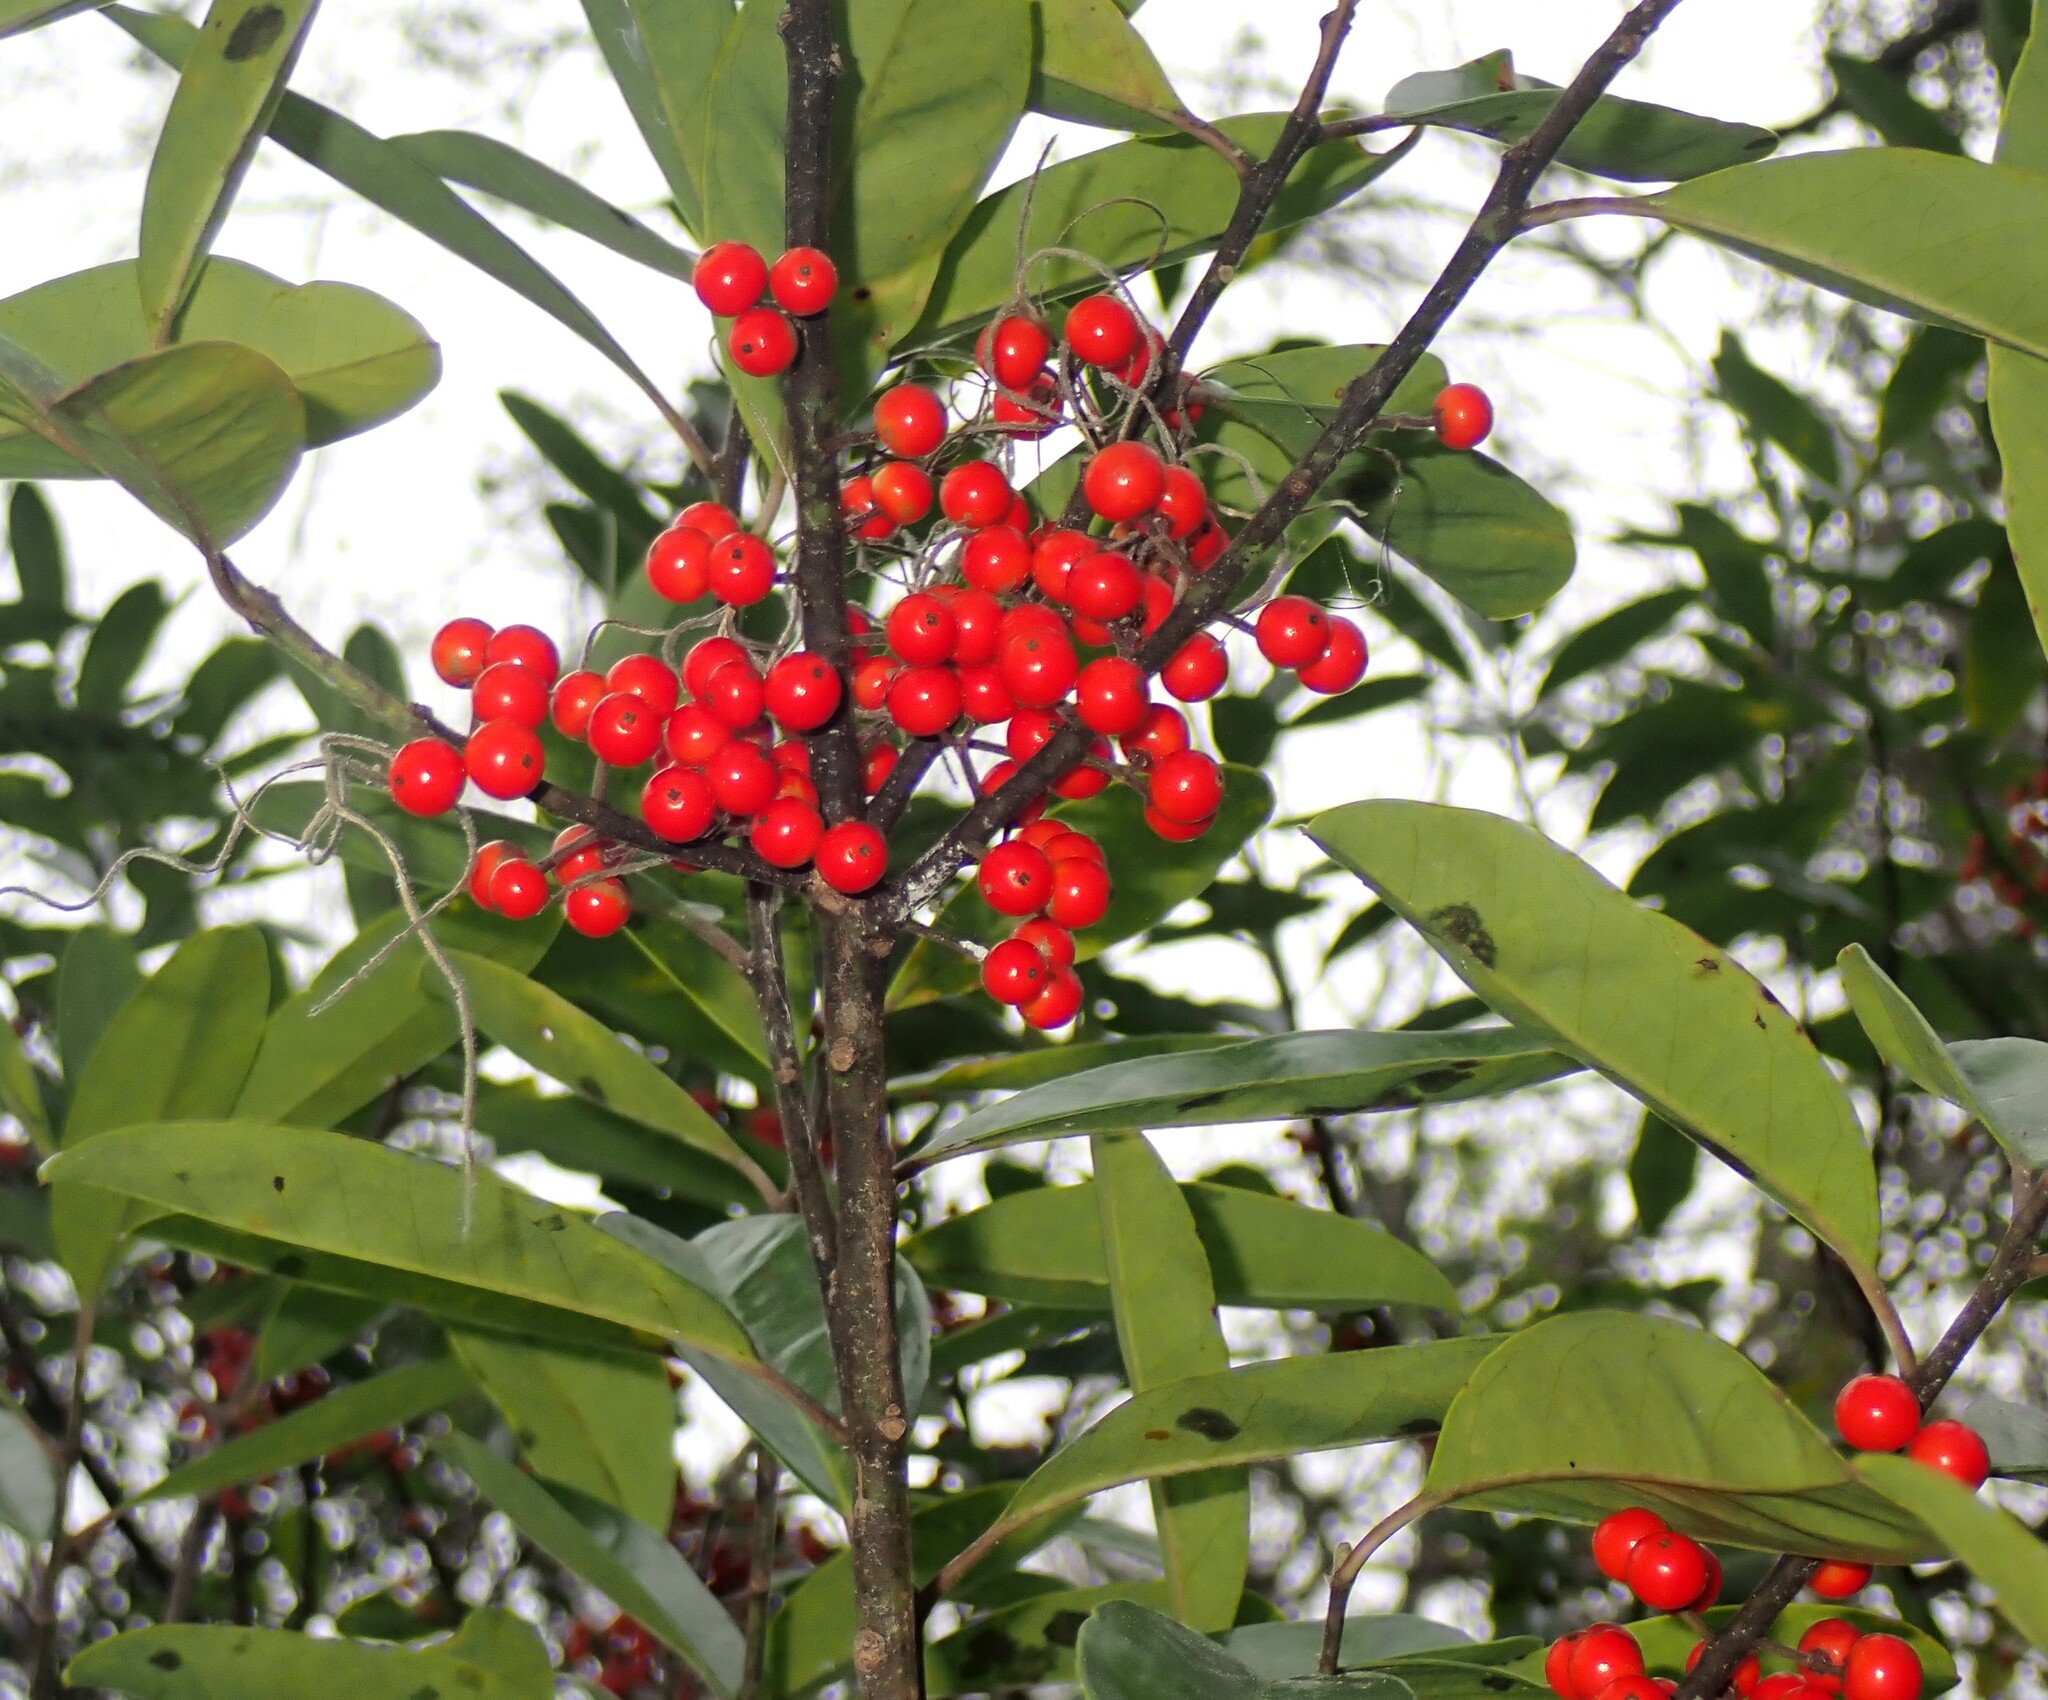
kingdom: Plantae
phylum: Tracheophyta
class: Magnoliopsida
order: Aquifoliales
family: Aquifoliaceae
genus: Ilex
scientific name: Ilex cassine
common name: Dahoon
